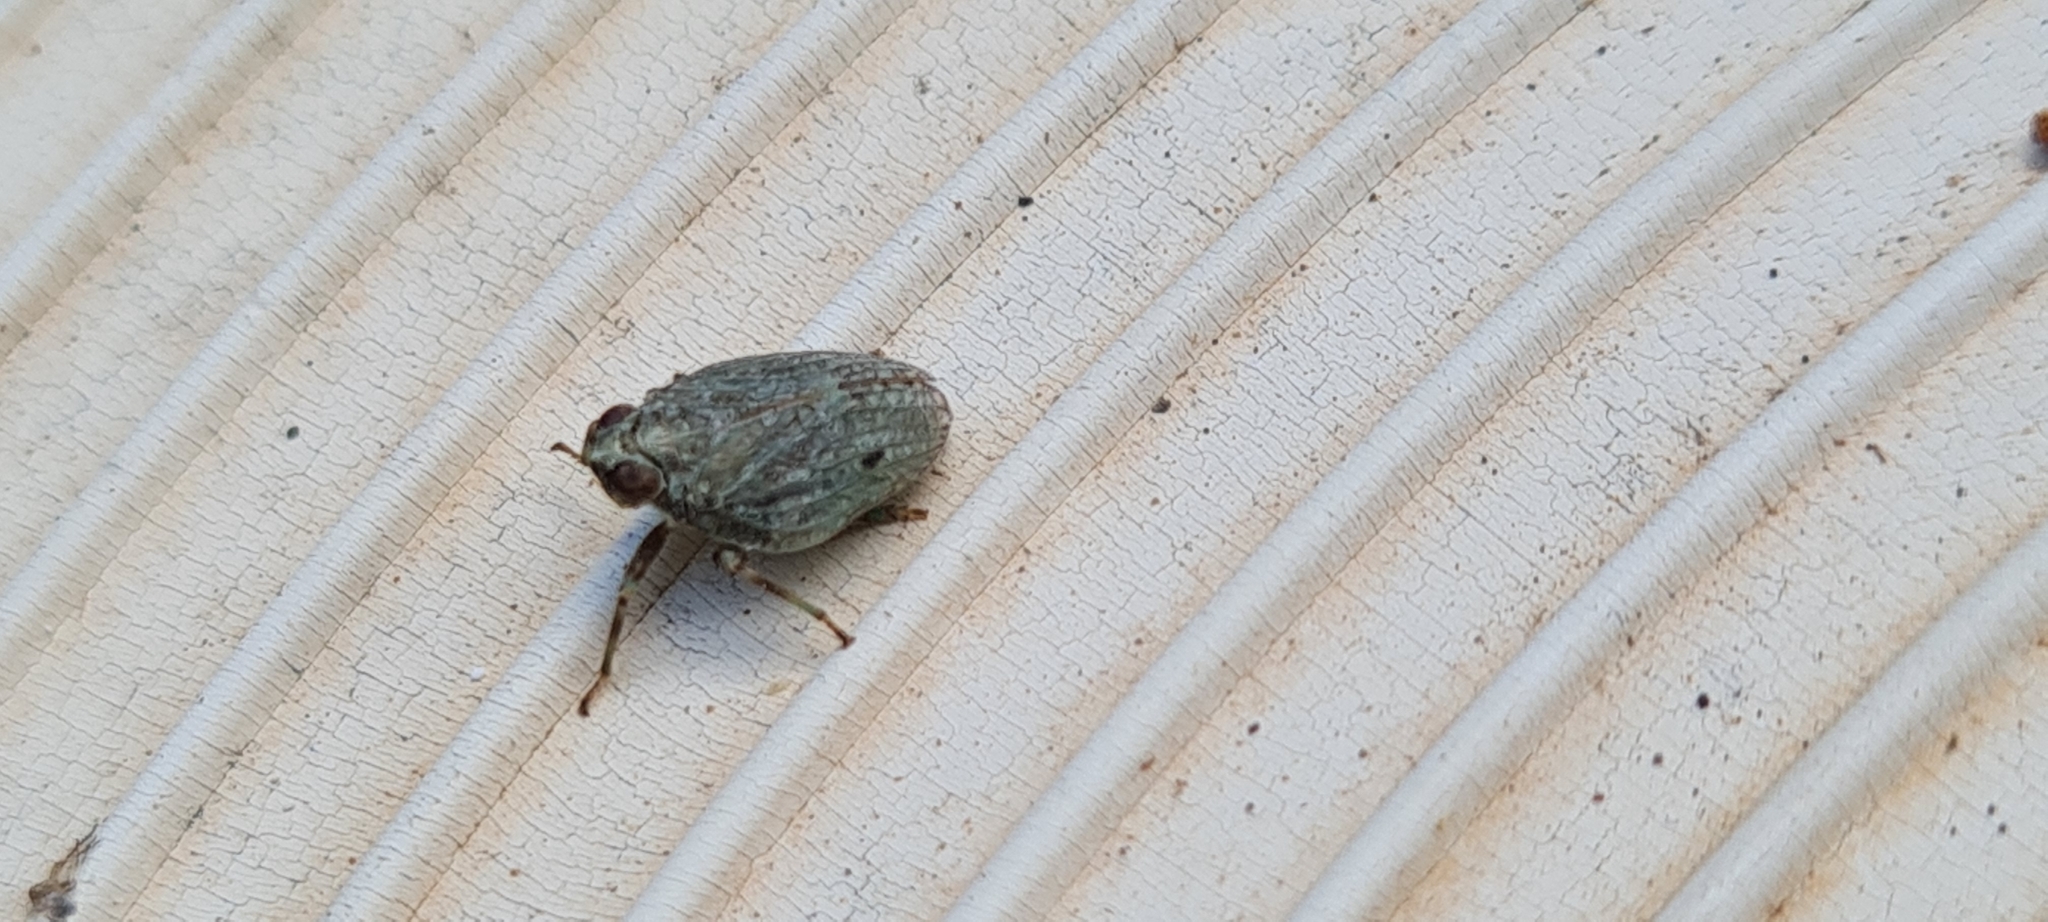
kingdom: Animalia
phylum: Arthropoda
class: Insecta
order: Hemiptera
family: Issidae
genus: Issus
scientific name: Issus coleoptratus
